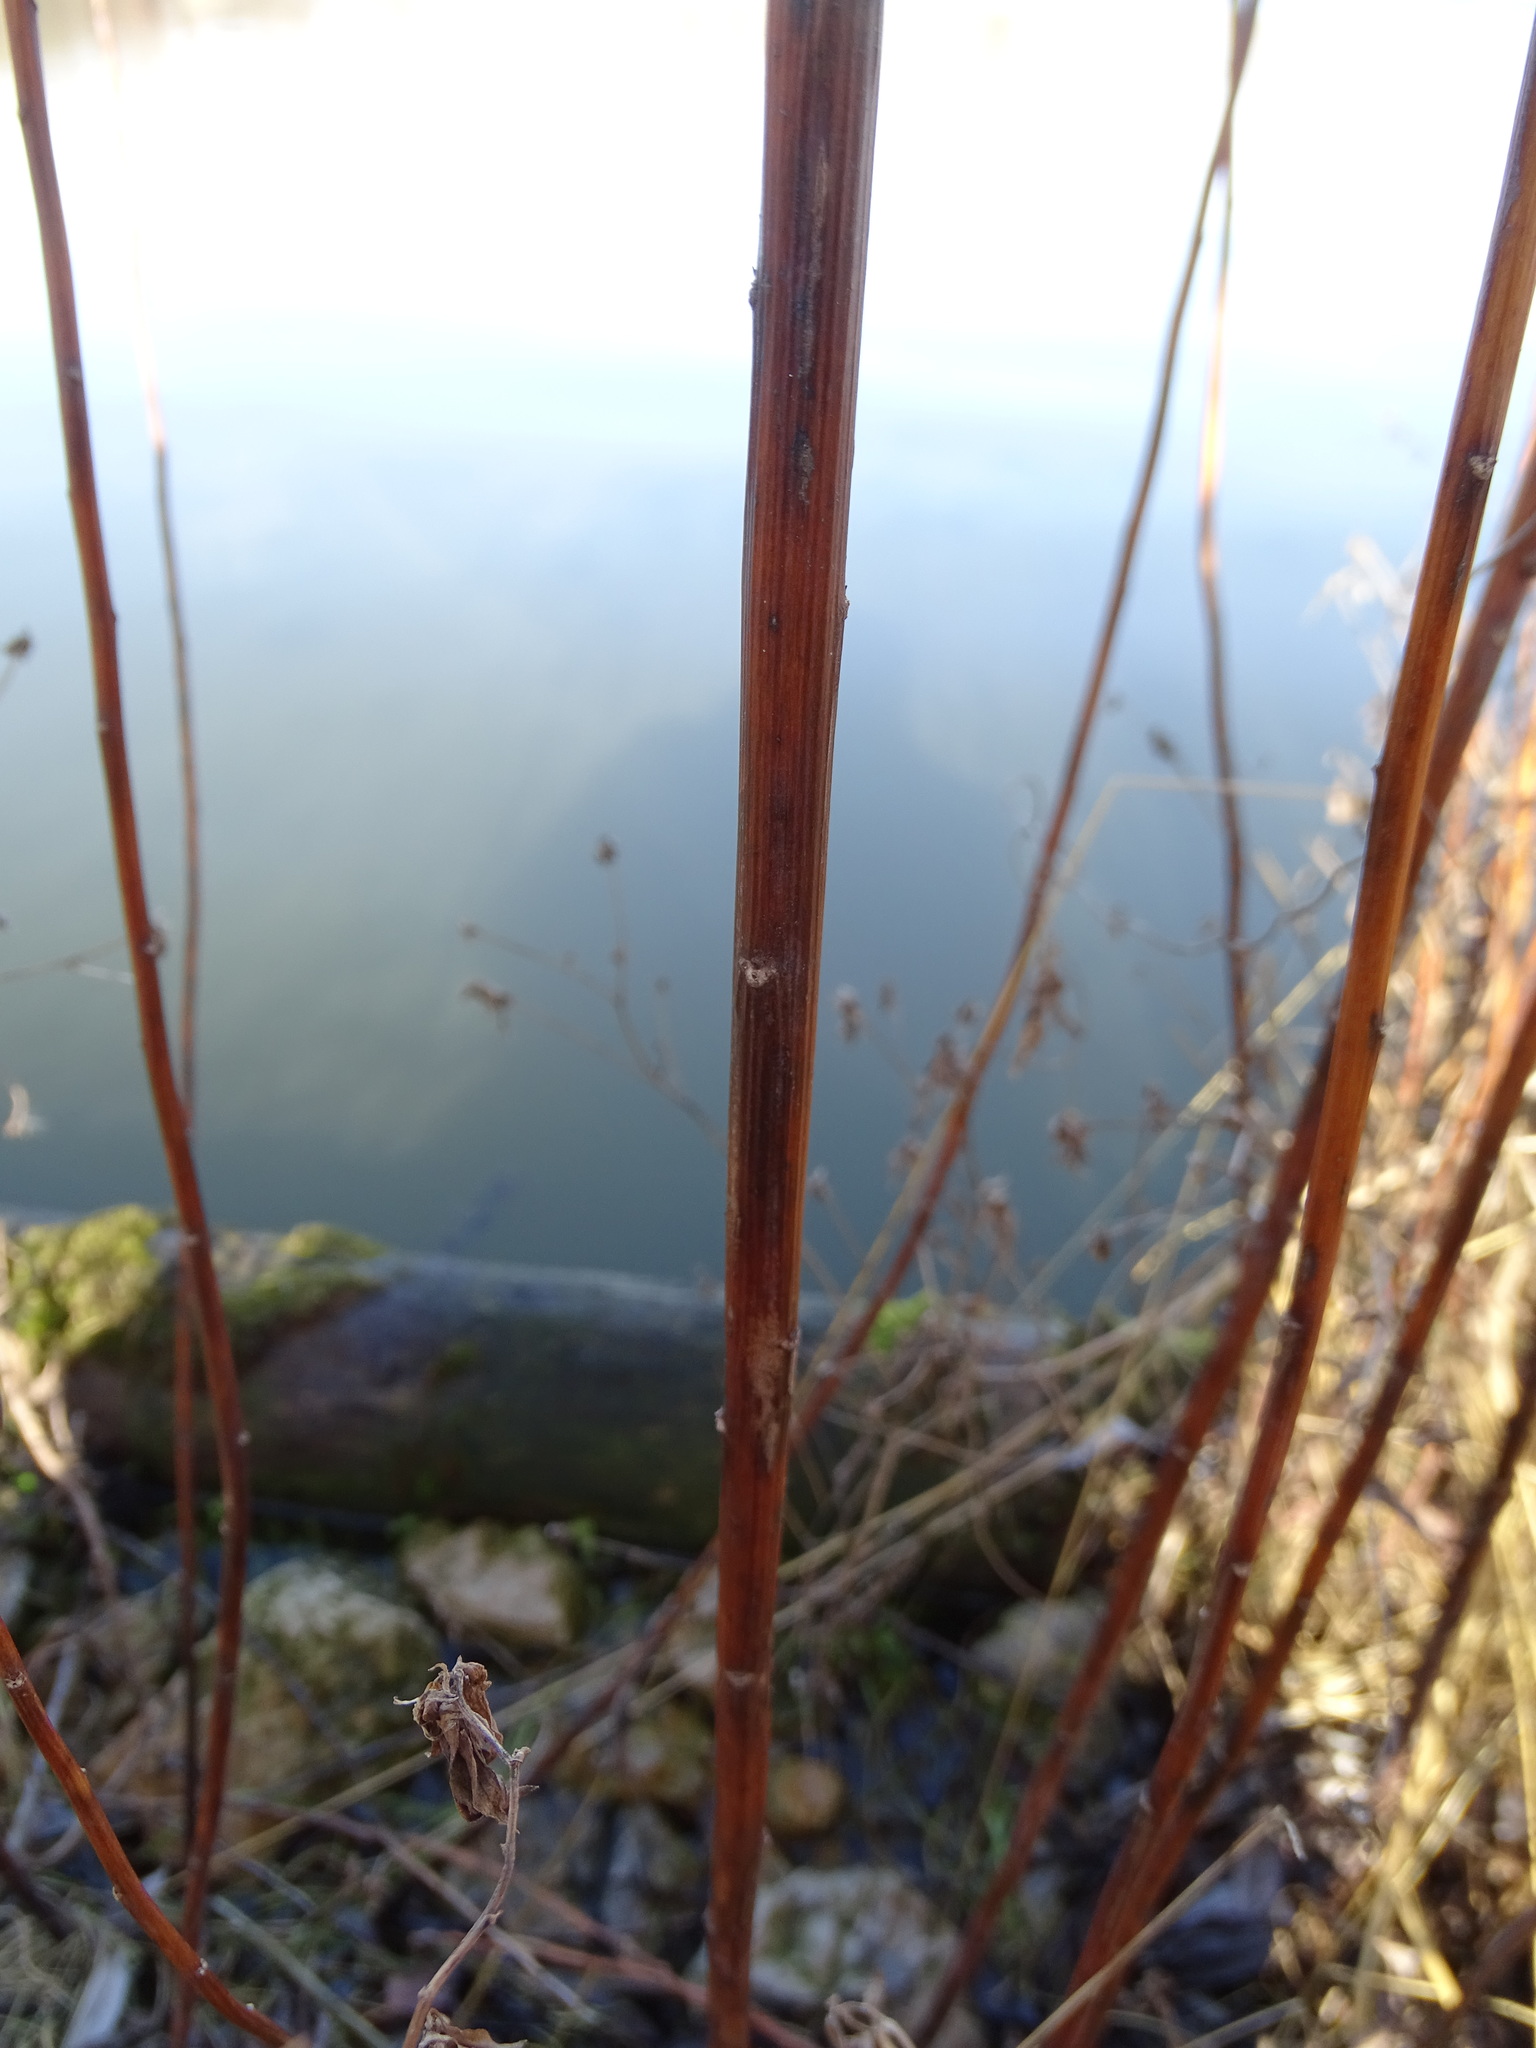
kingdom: Plantae
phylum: Tracheophyta
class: Magnoliopsida
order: Asterales
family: Asteraceae
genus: Solidago
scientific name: Solidago gigantea
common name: Giant goldenrod
